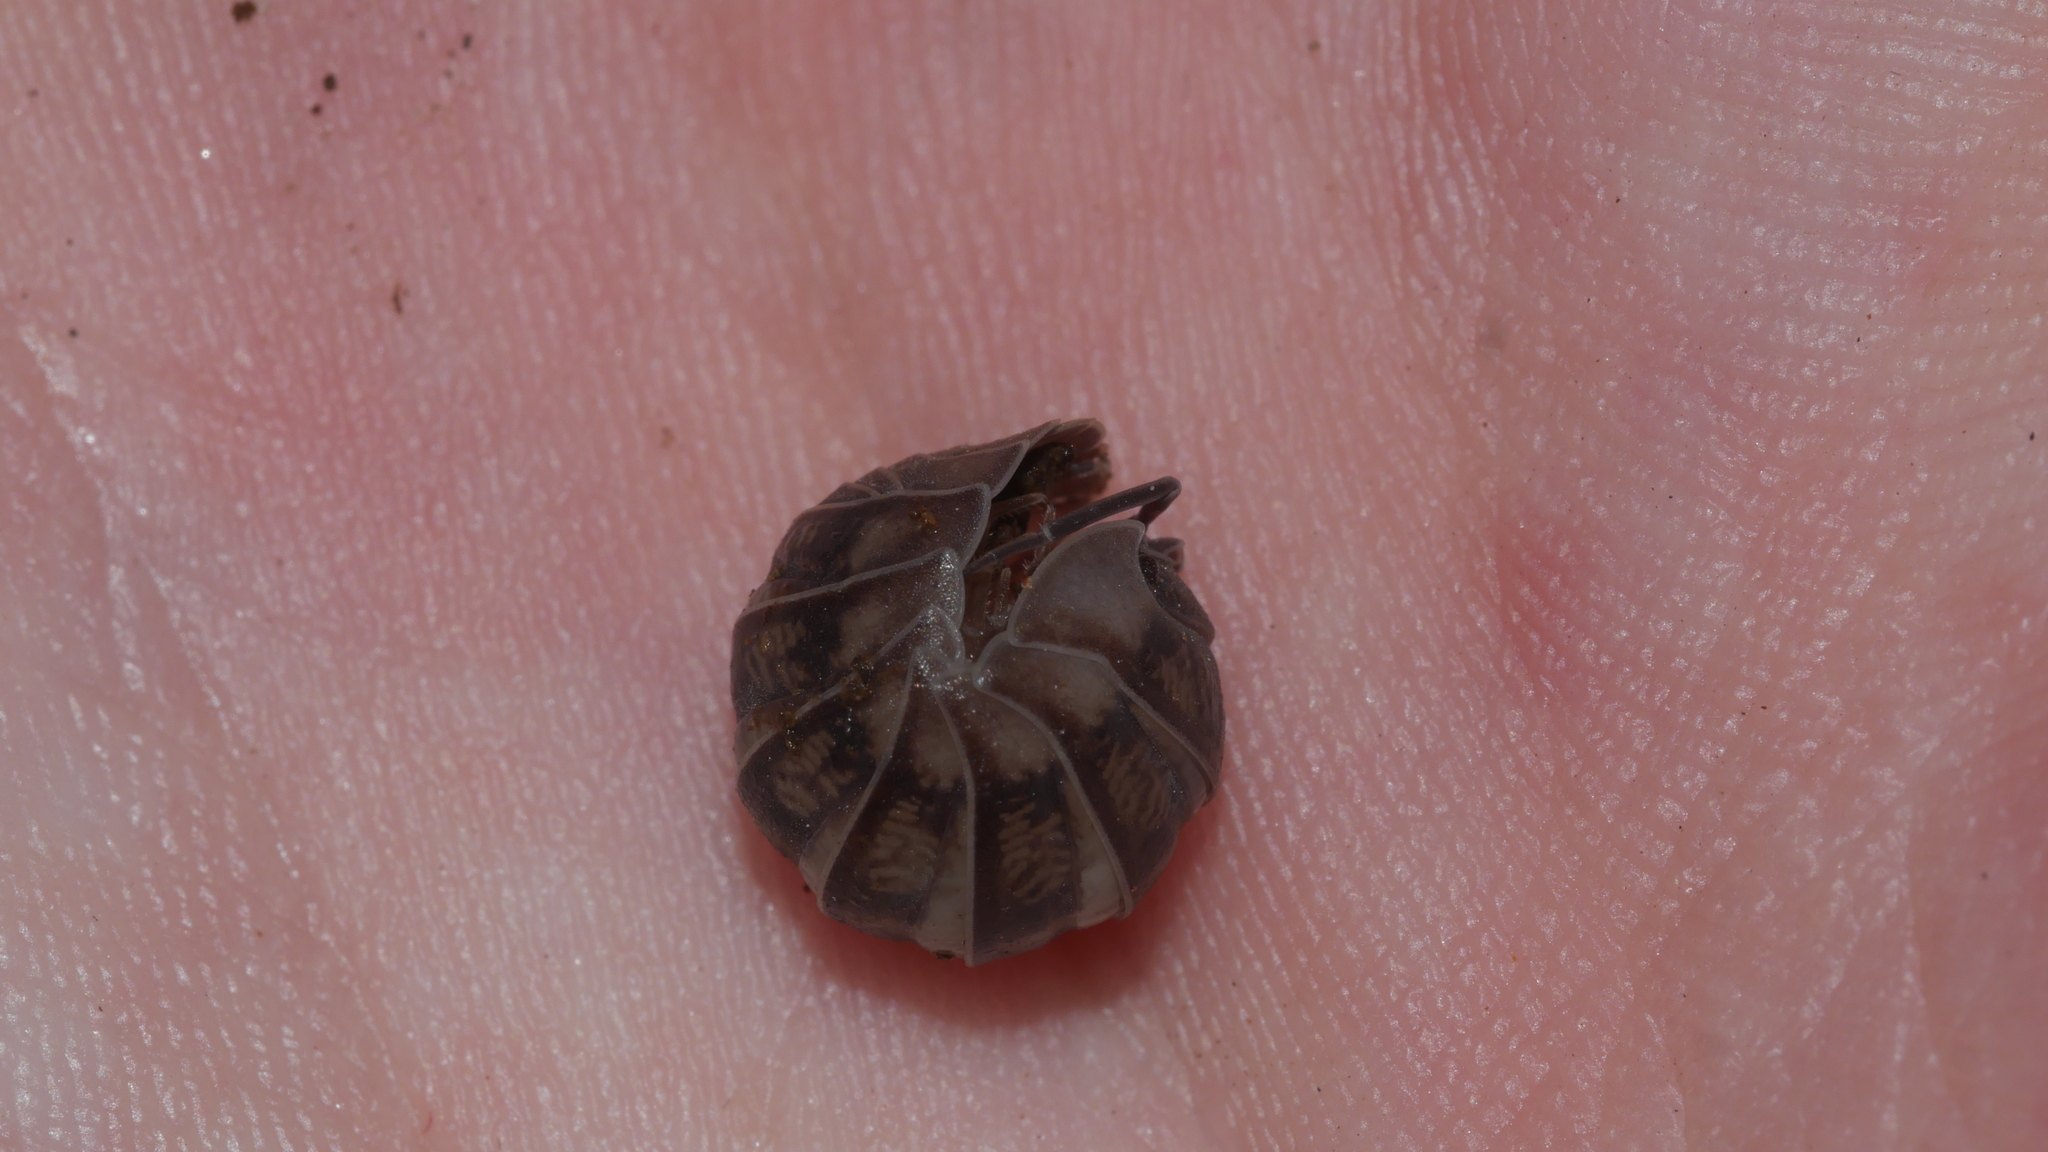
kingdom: Animalia
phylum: Arthropoda
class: Malacostraca
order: Isopoda
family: Armadillidiidae
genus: Armadillidium
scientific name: Armadillidium nasatum
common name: Isopod
